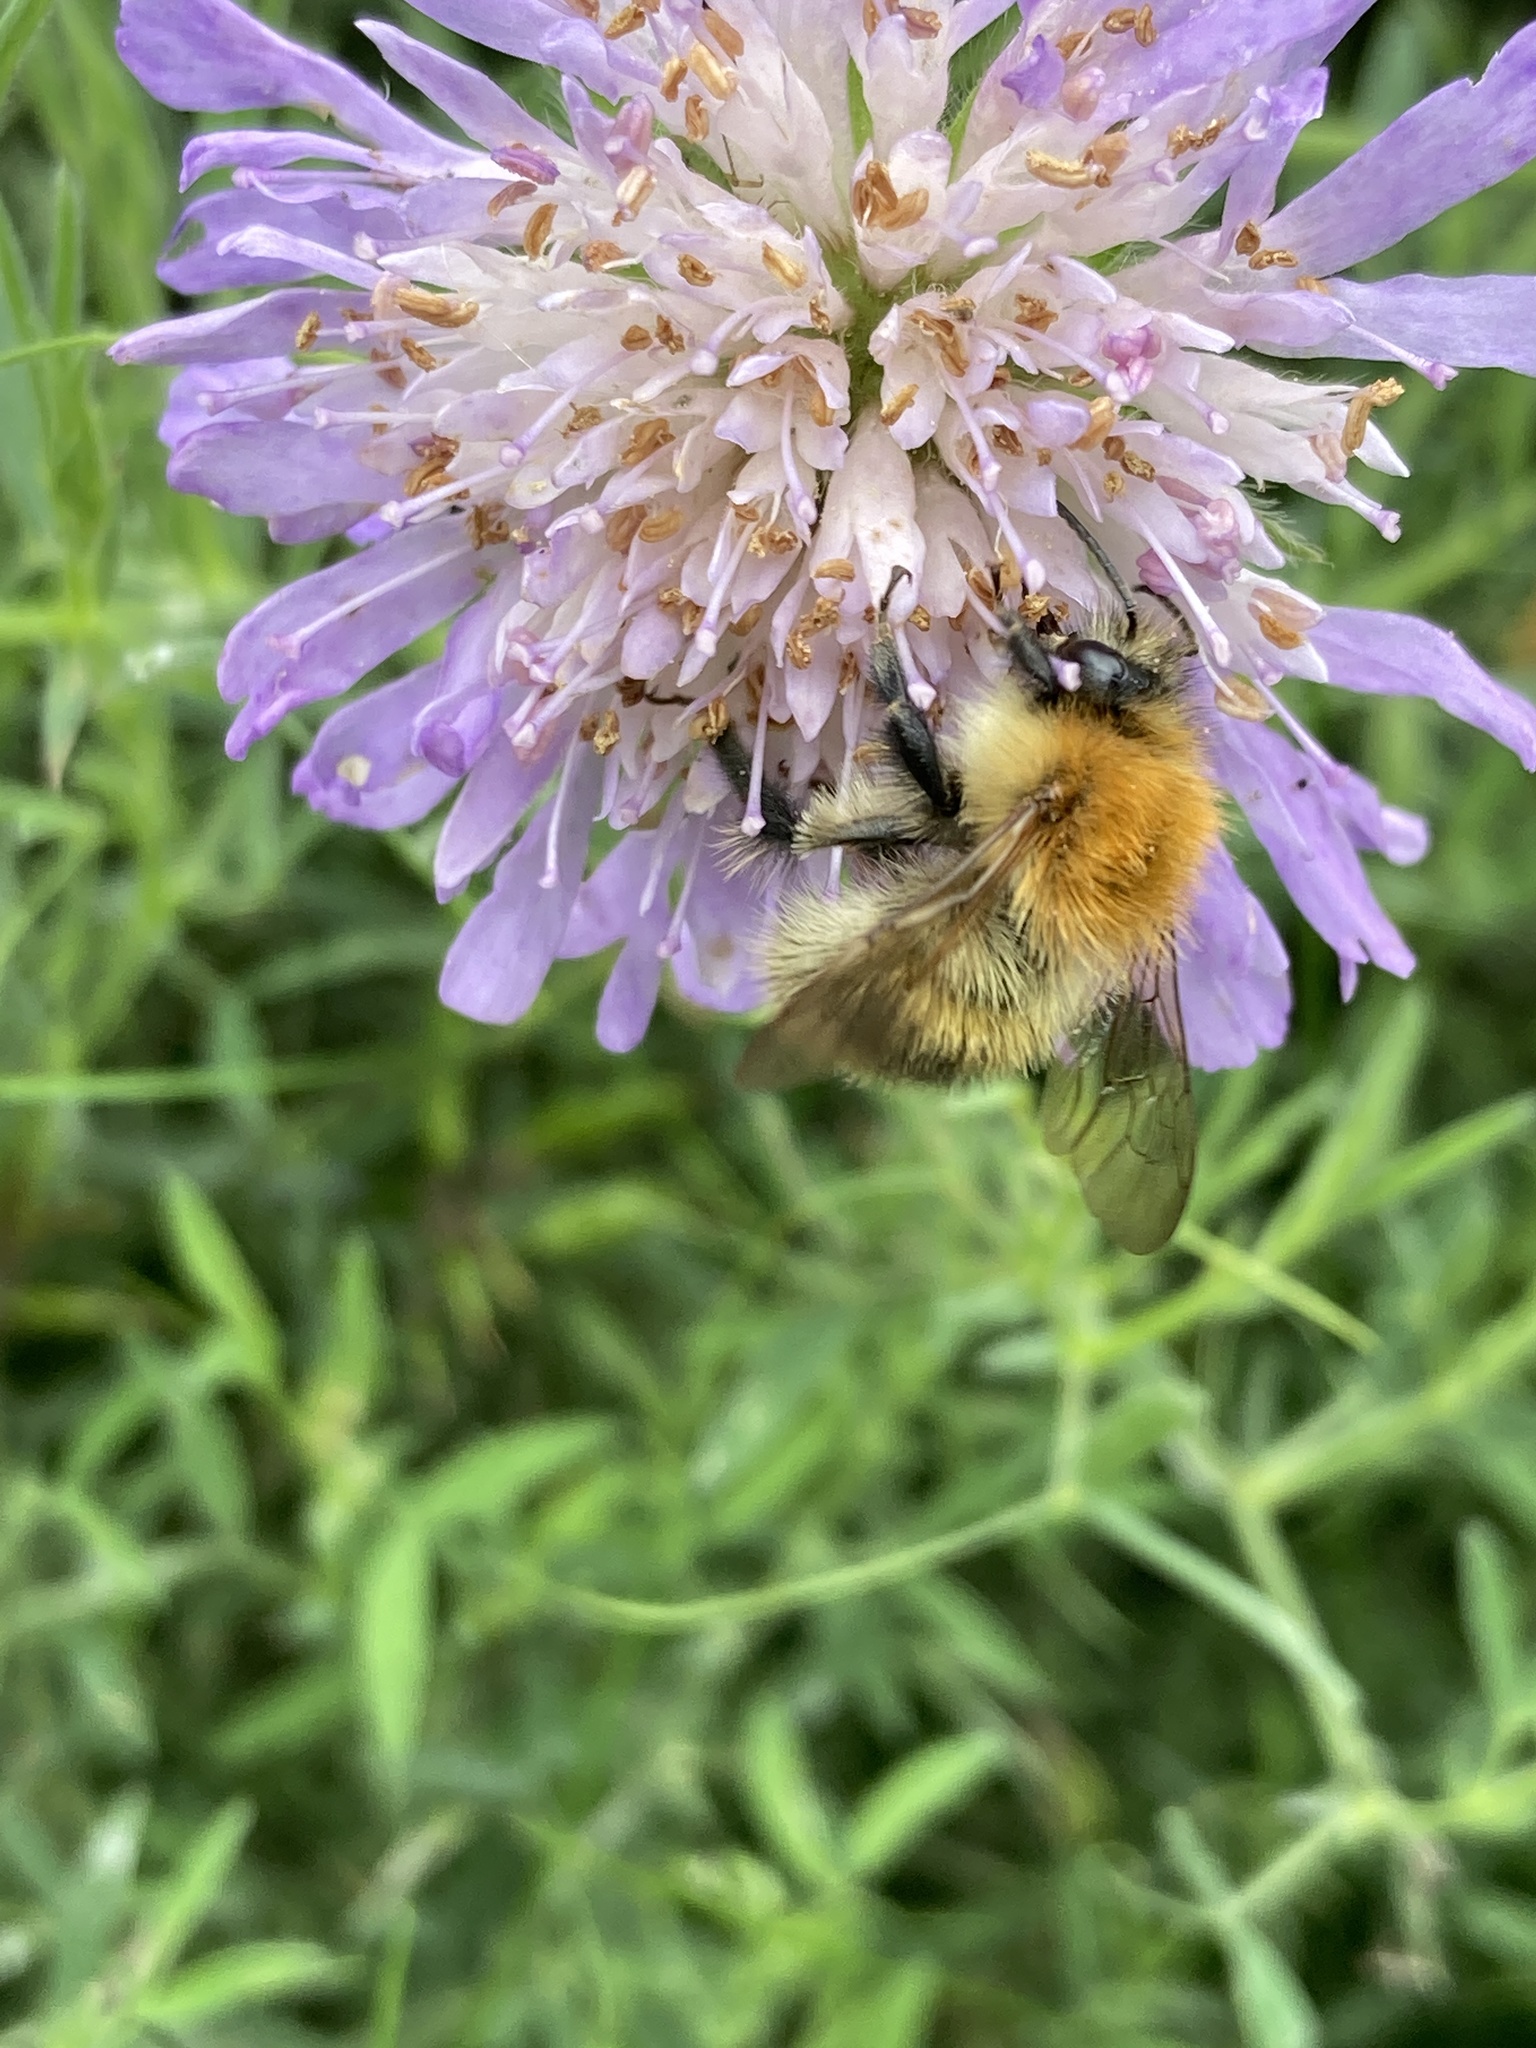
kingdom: Animalia
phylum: Arthropoda
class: Insecta
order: Hymenoptera
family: Apidae
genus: Bombus
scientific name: Bombus pascuorum
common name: Common carder bee
